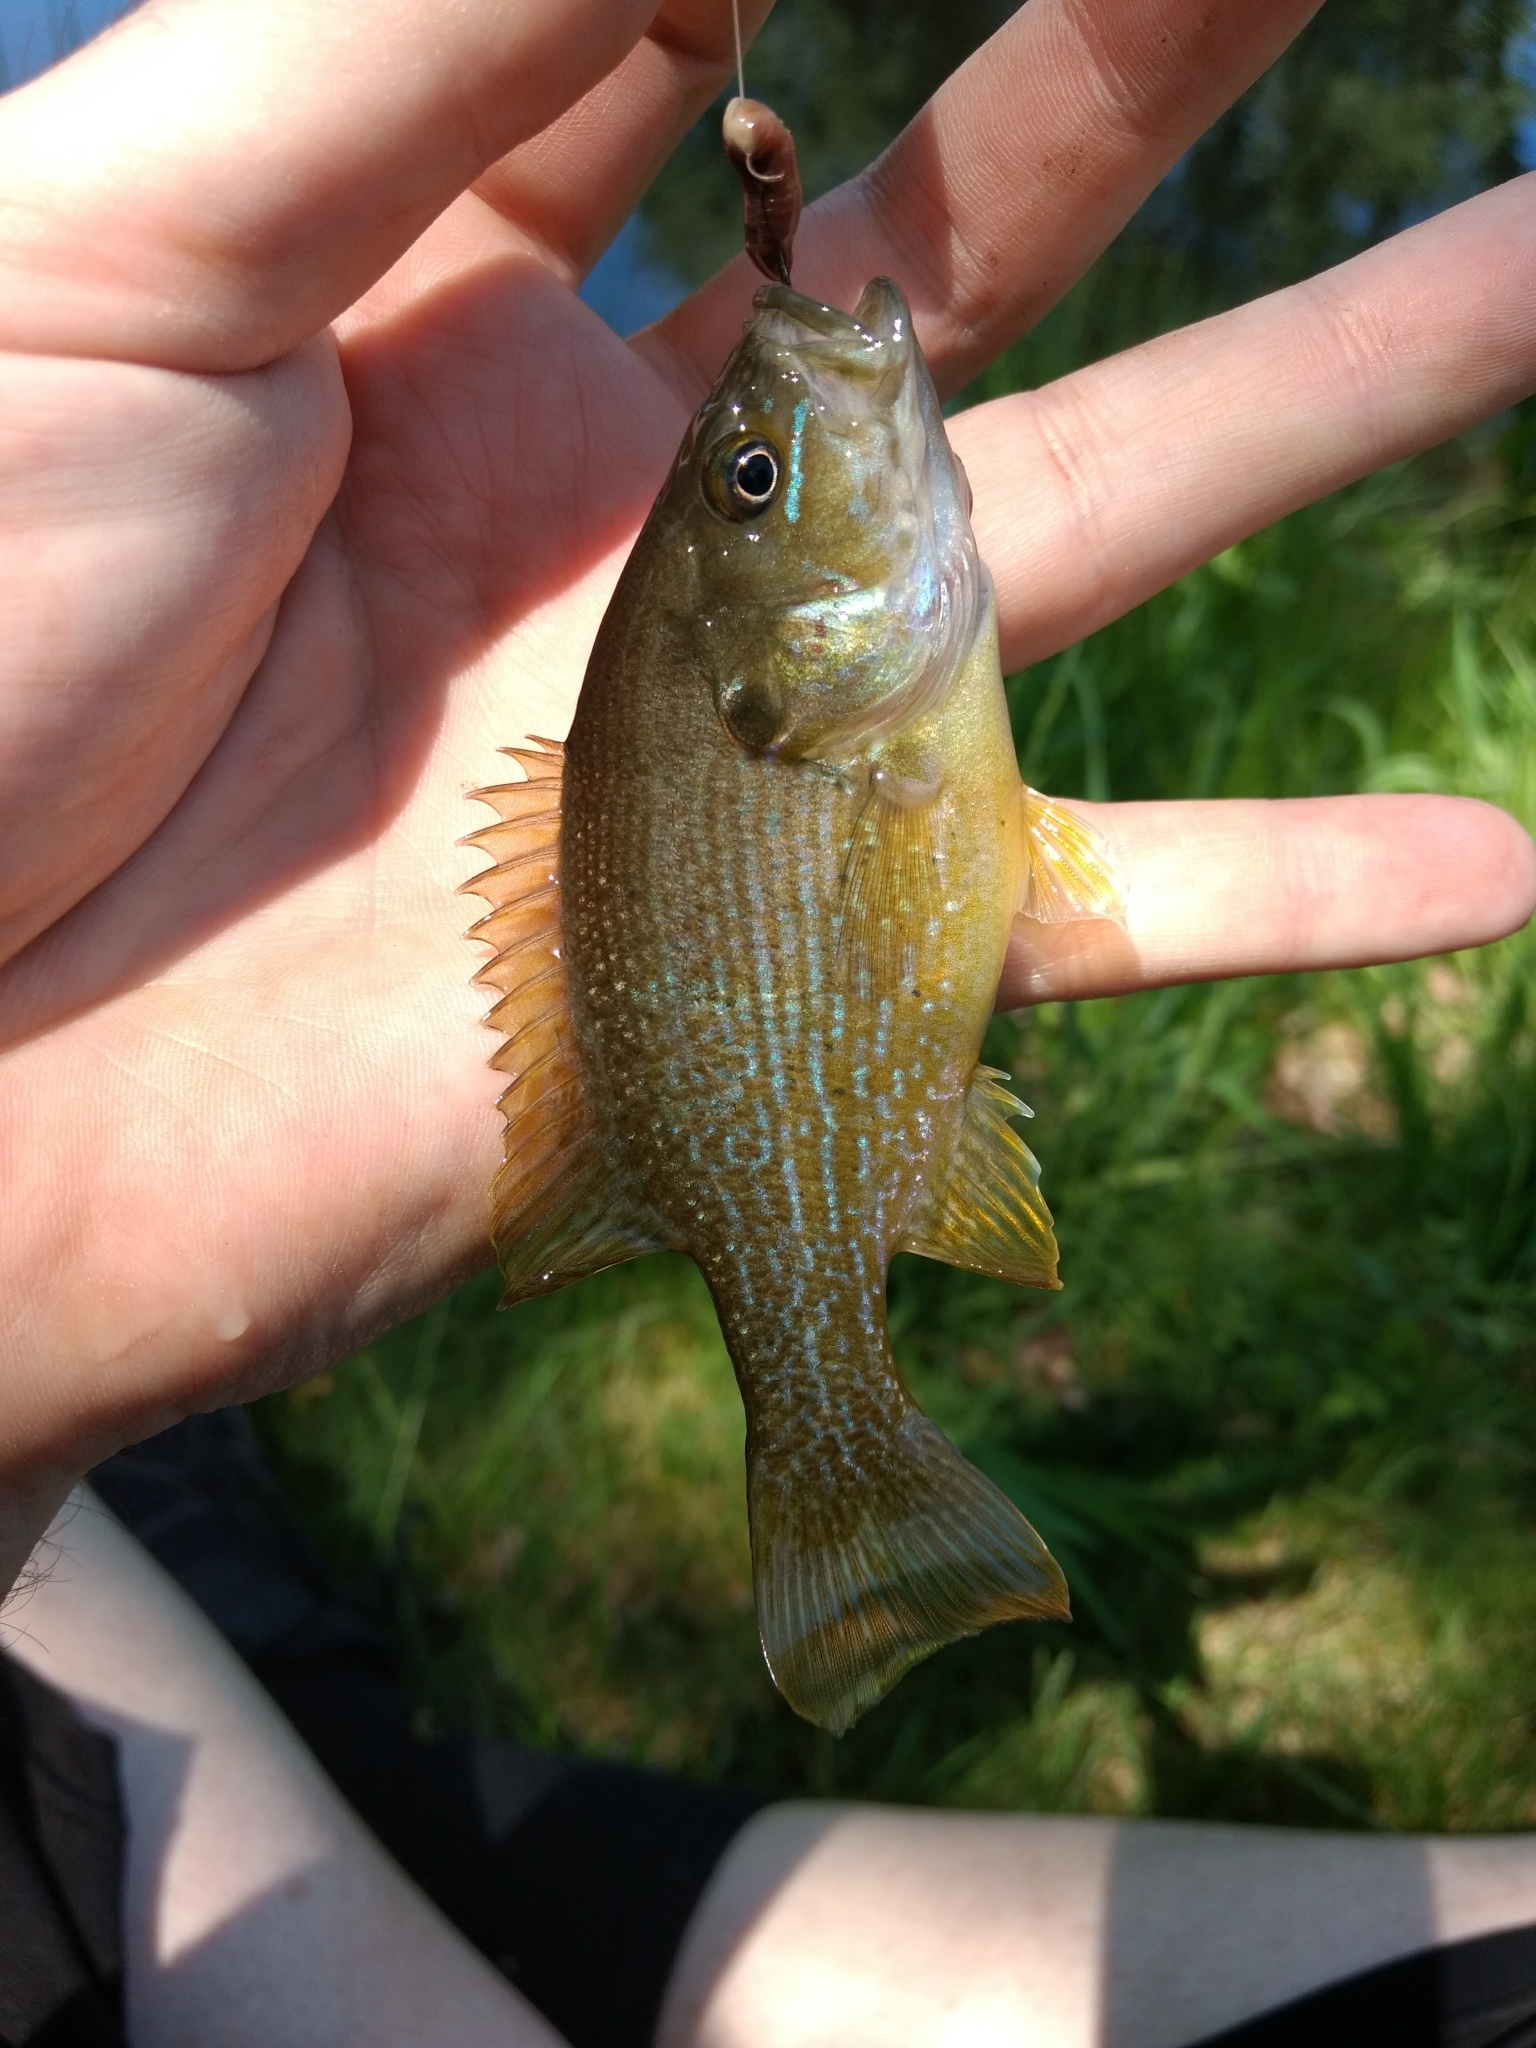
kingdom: Animalia
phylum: Chordata
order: Perciformes
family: Centrarchidae
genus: Lepomis
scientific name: Lepomis cyanellus
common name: Green sunfish
